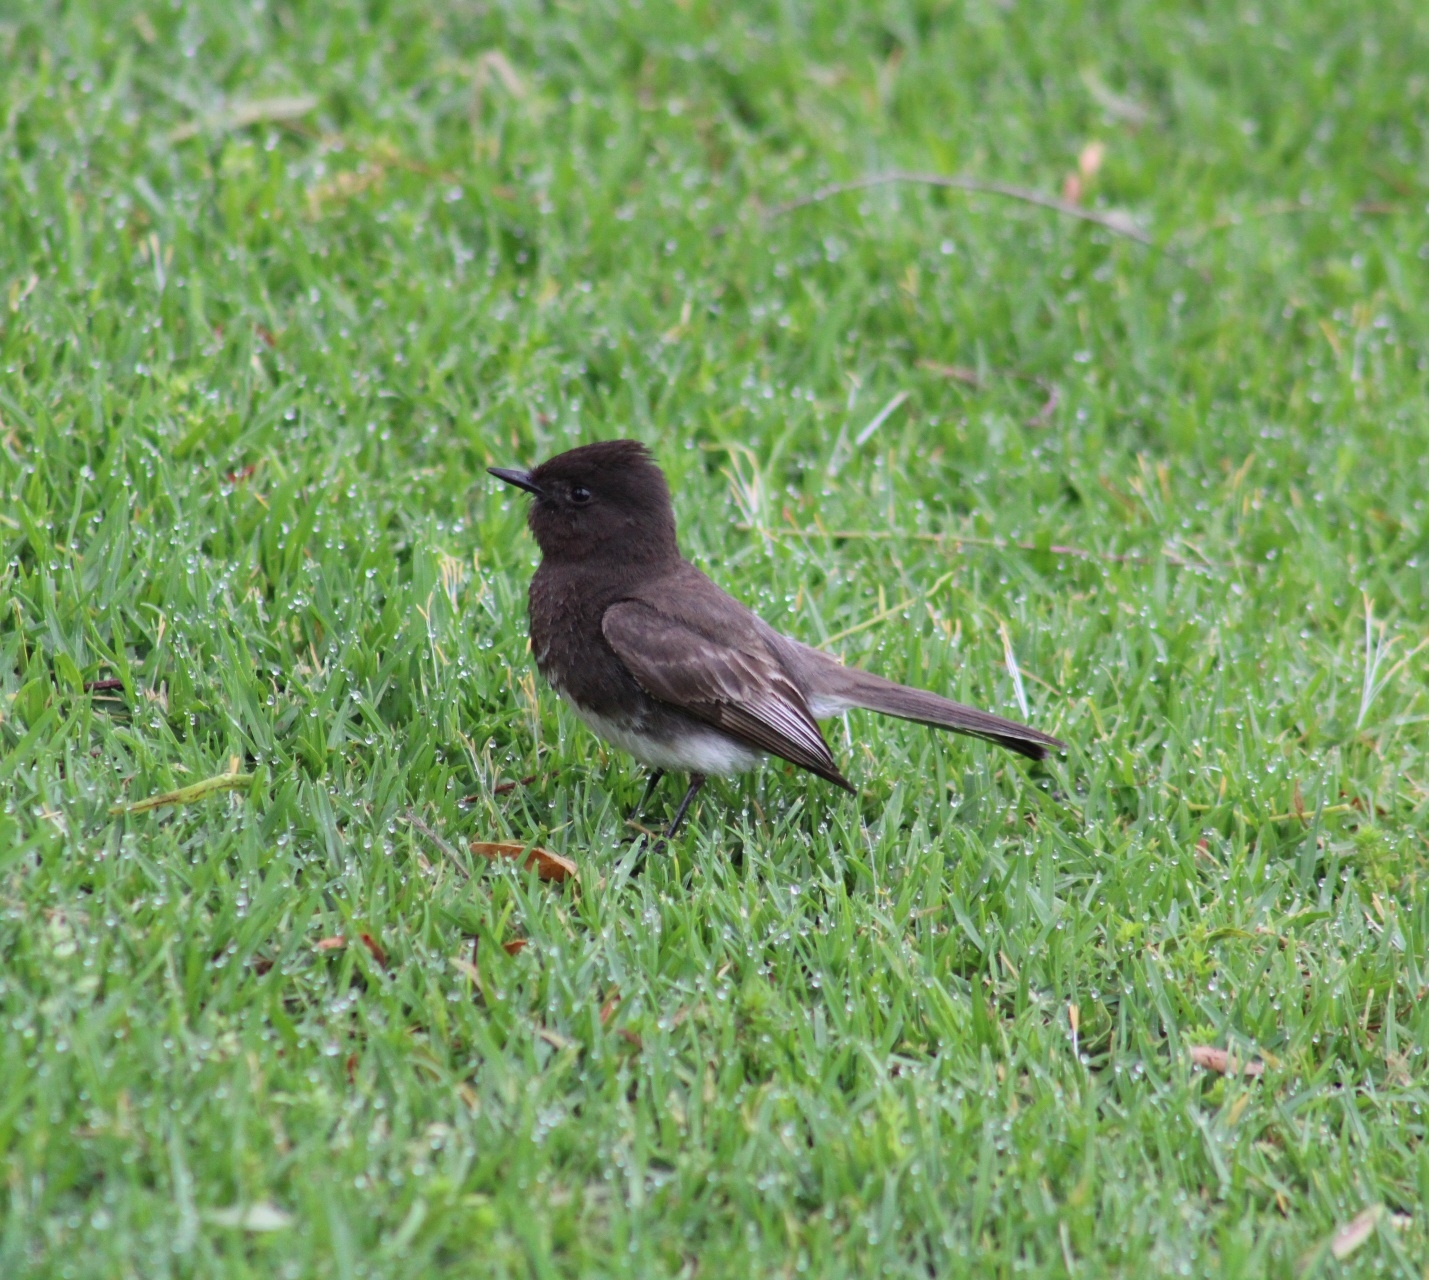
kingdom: Animalia
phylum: Chordata
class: Aves
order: Passeriformes
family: Tyrannidae
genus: Sayornis
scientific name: Sayornis nigricans
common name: Black phoebe
